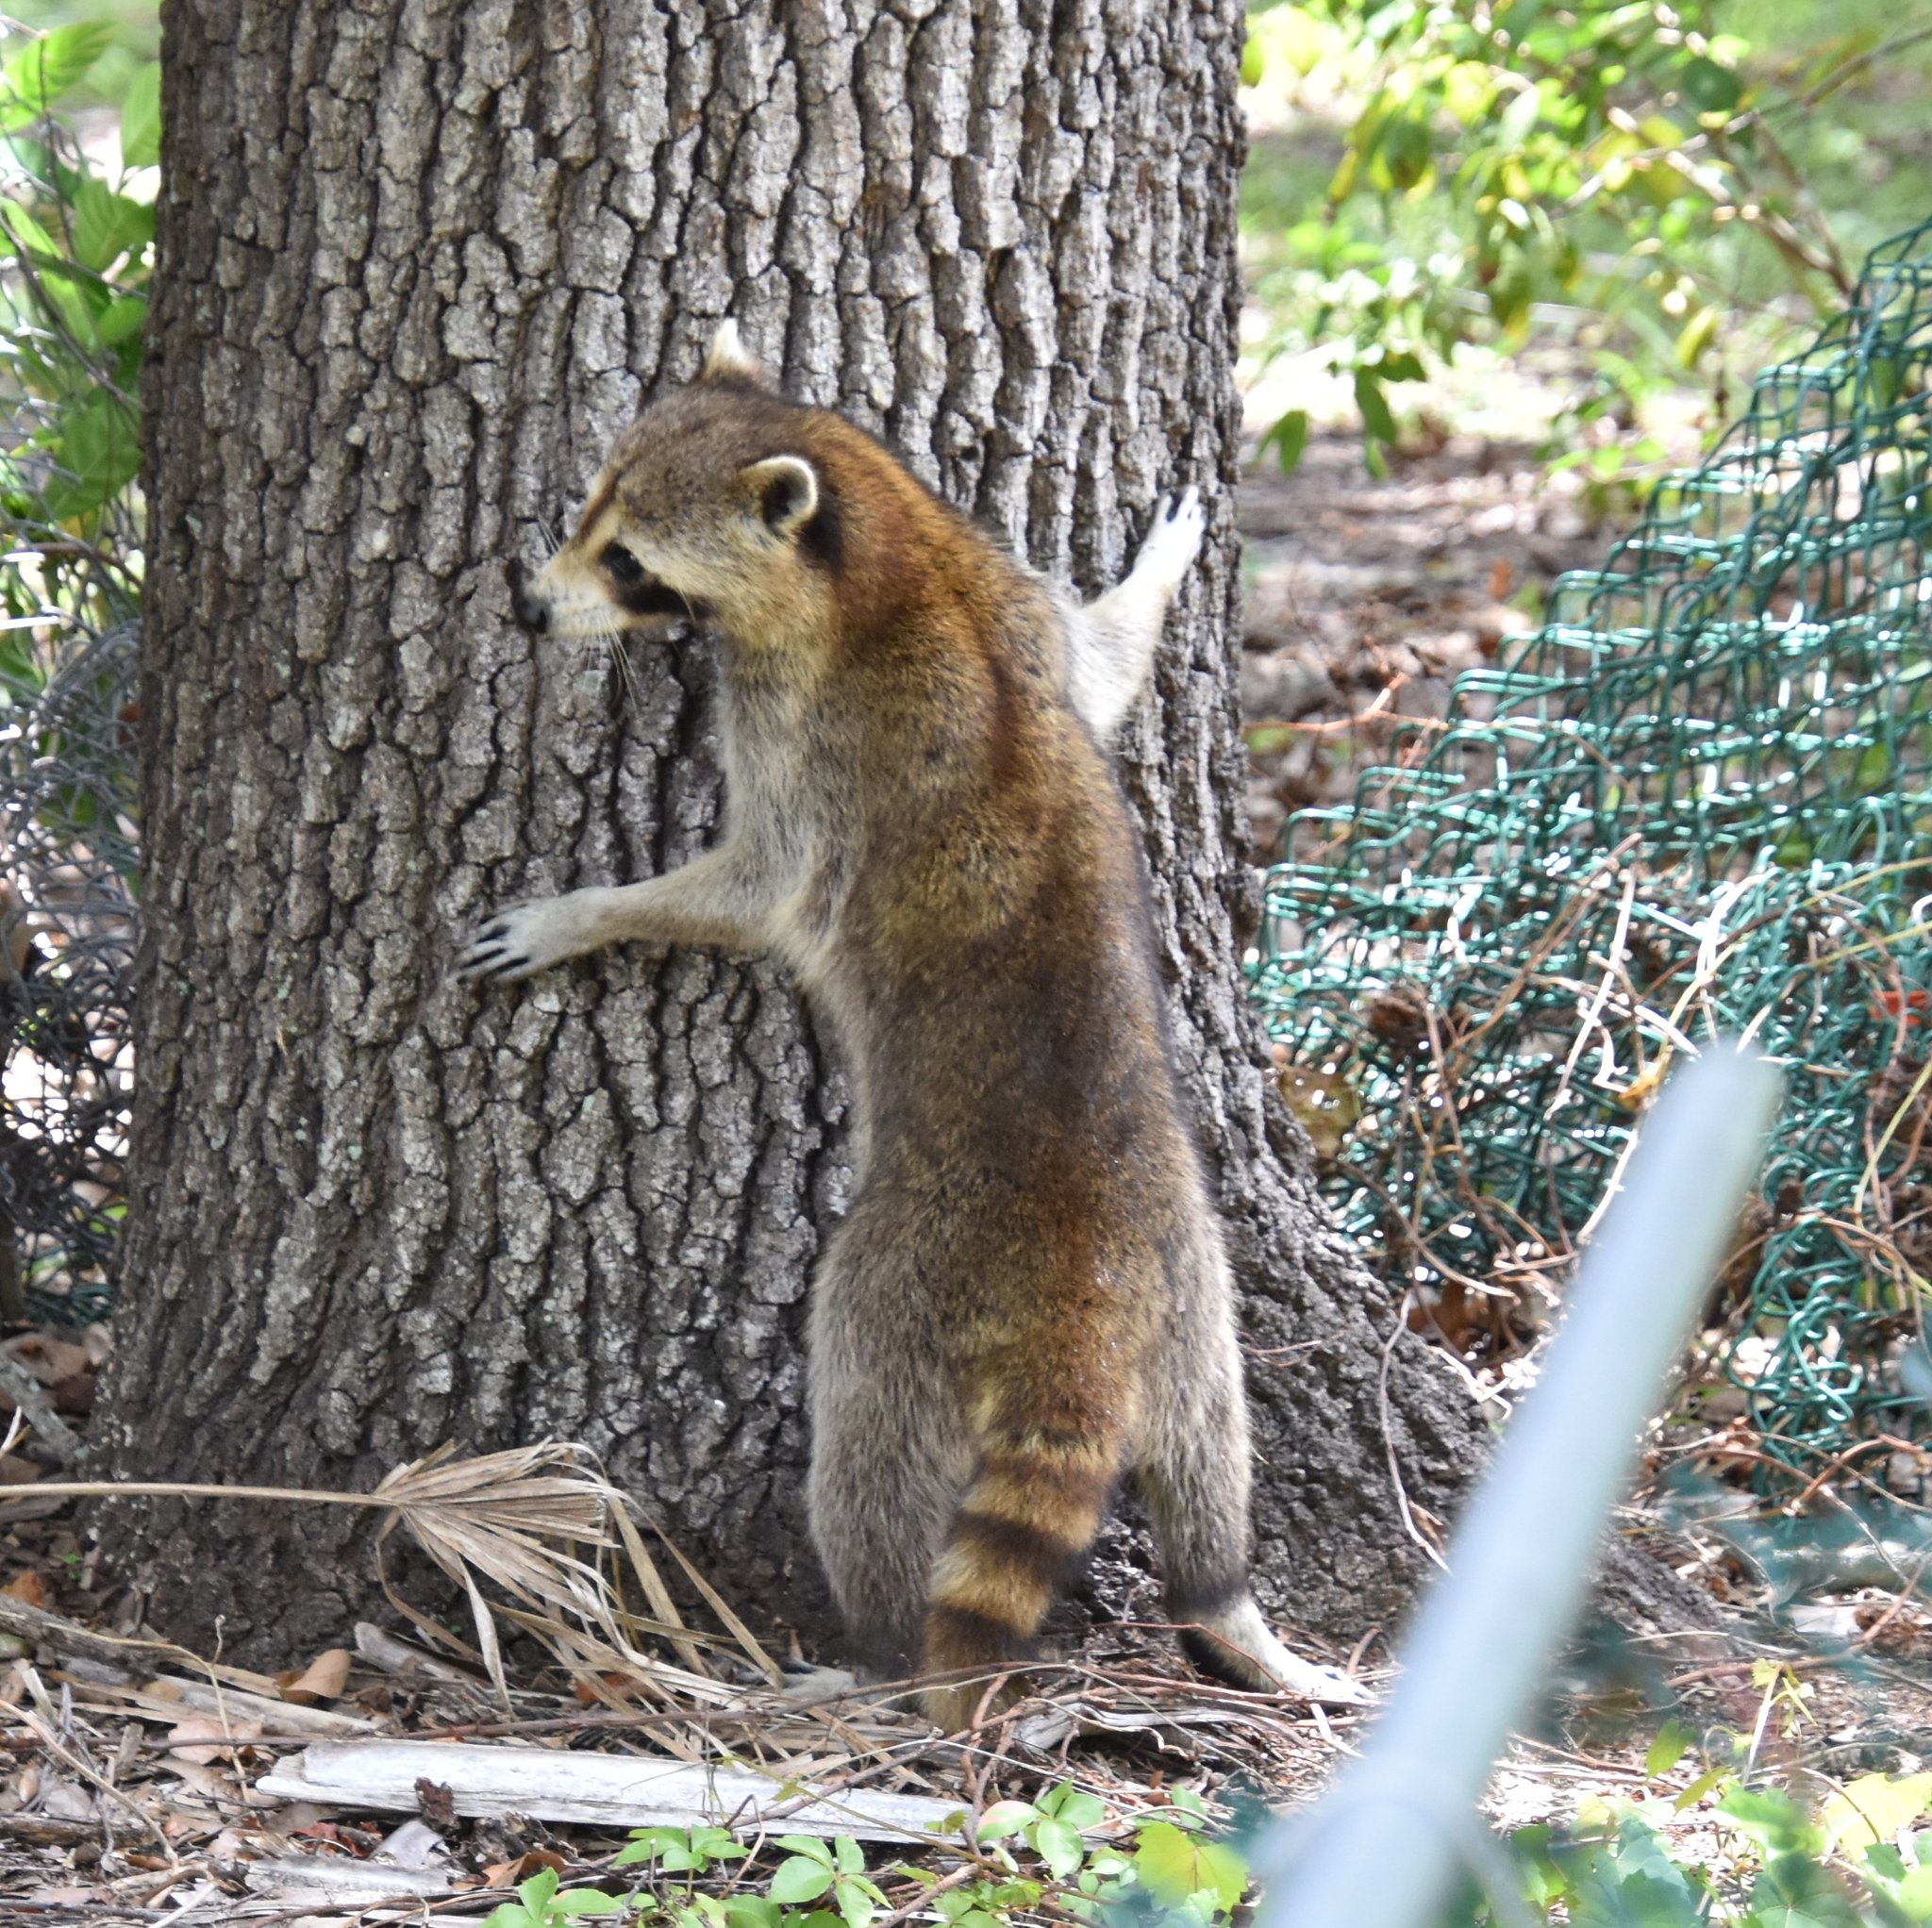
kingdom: Animalia
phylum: Chordata
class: Mammalia
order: Carnivora
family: Procyonidae
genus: Procyon
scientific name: Procyon lotor
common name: Raccoon
